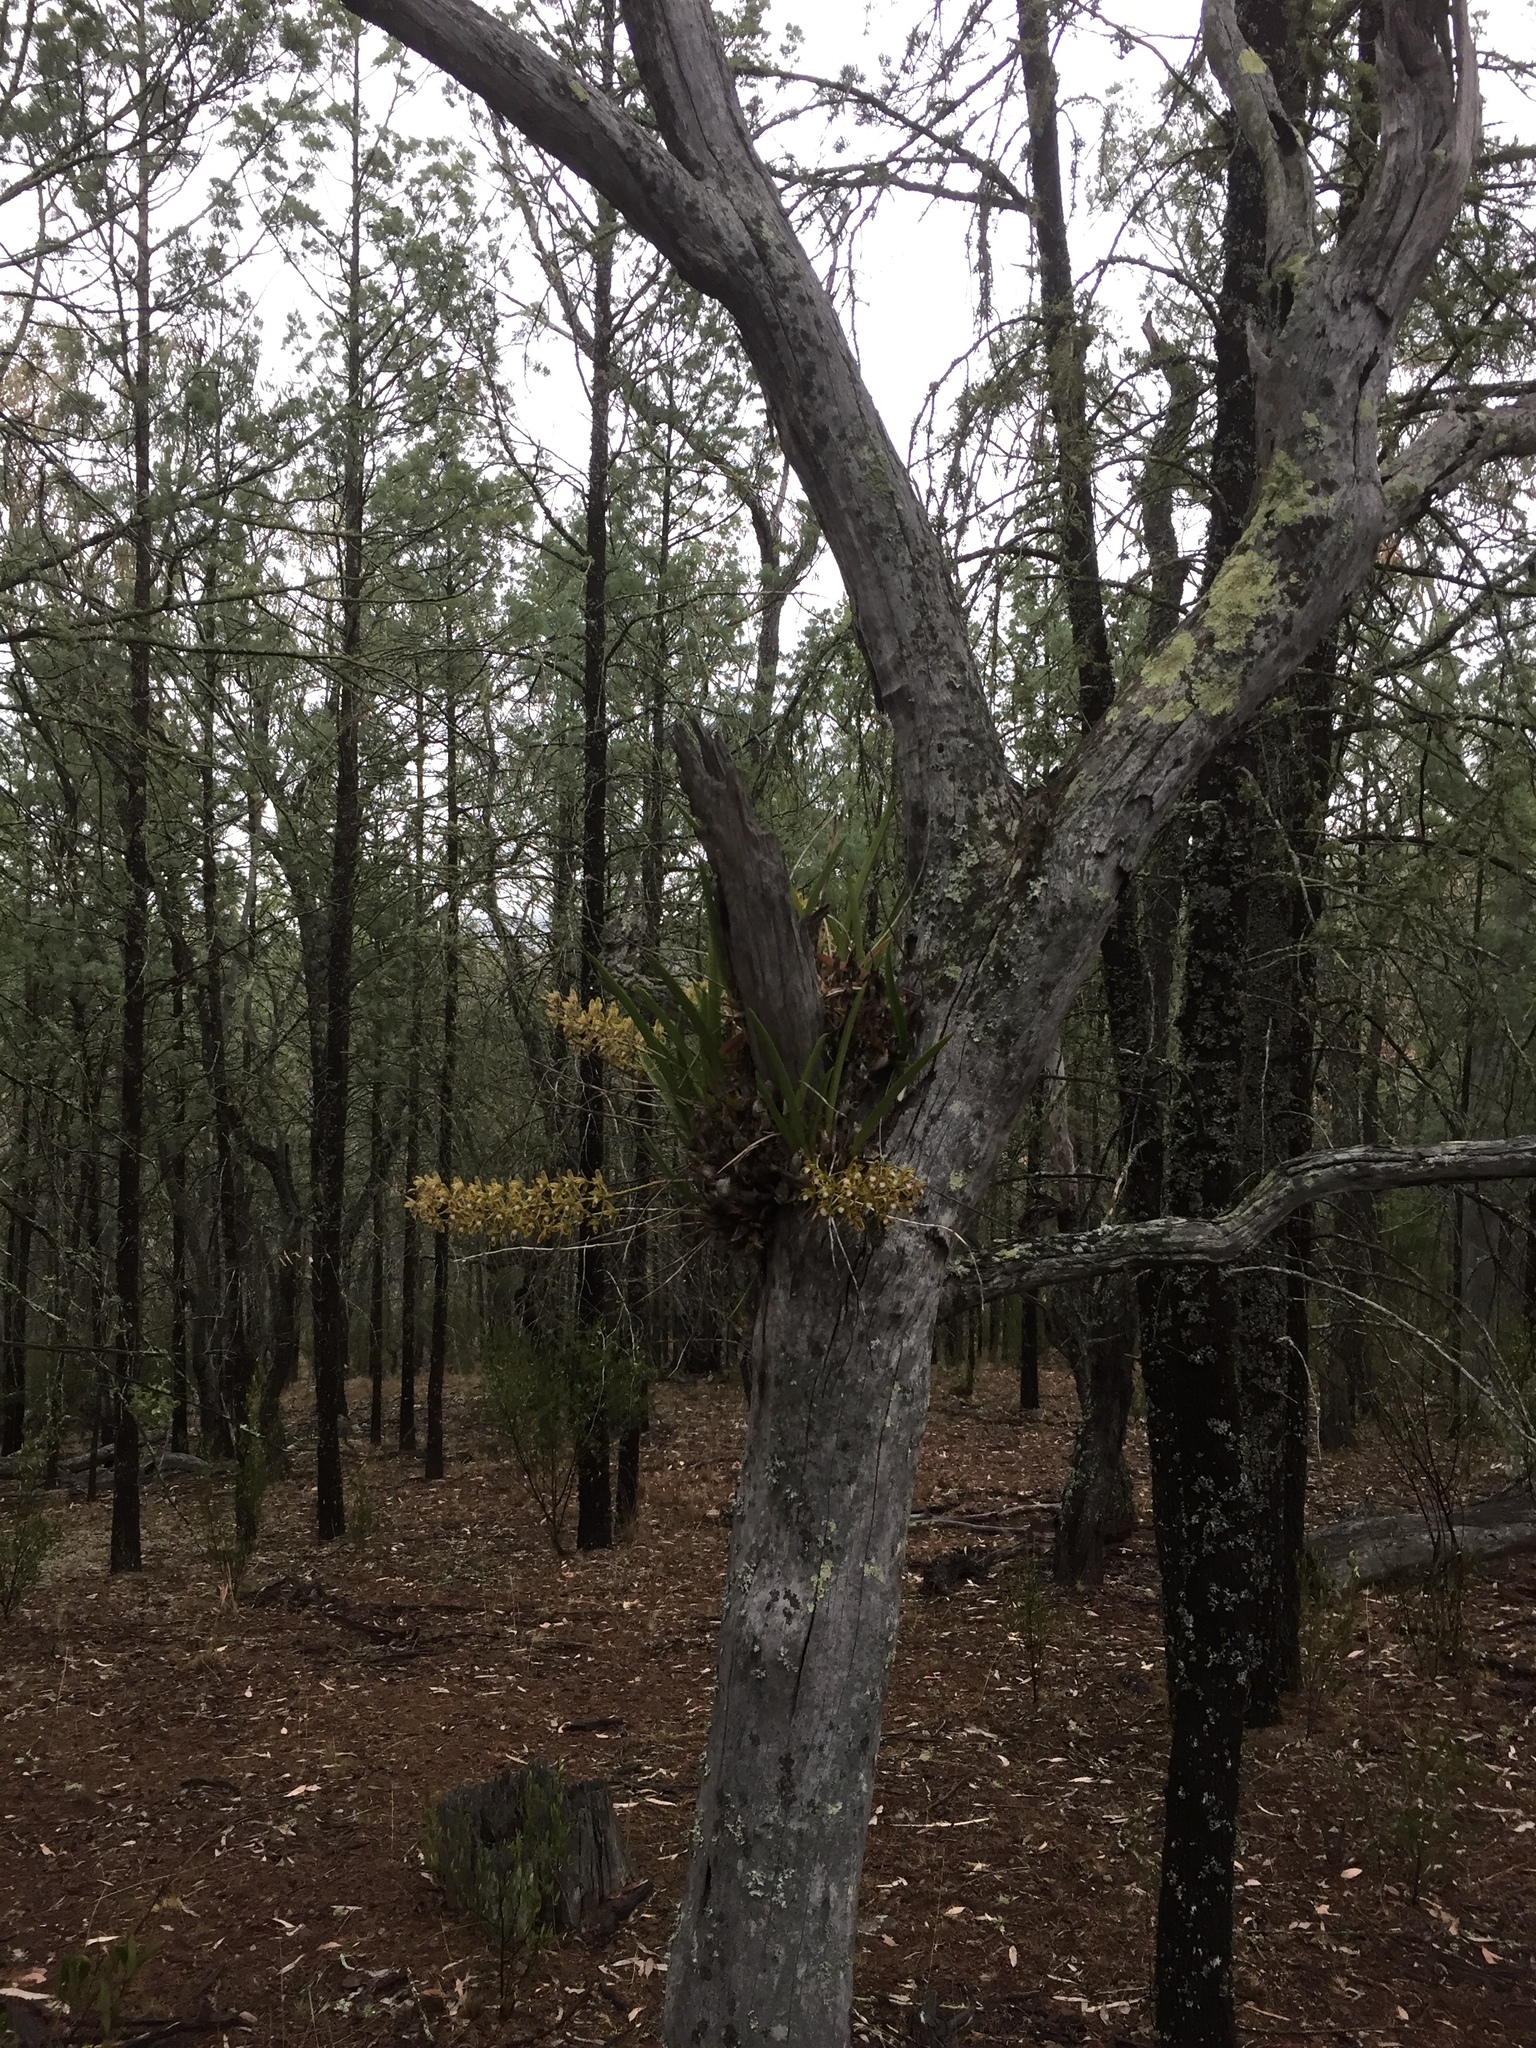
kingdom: Plantae
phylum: Tracheophyta
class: Liliopsida
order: Asparagales
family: Orchidaceae
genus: Cymbidium
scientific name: Cymbidium canaliculatum
